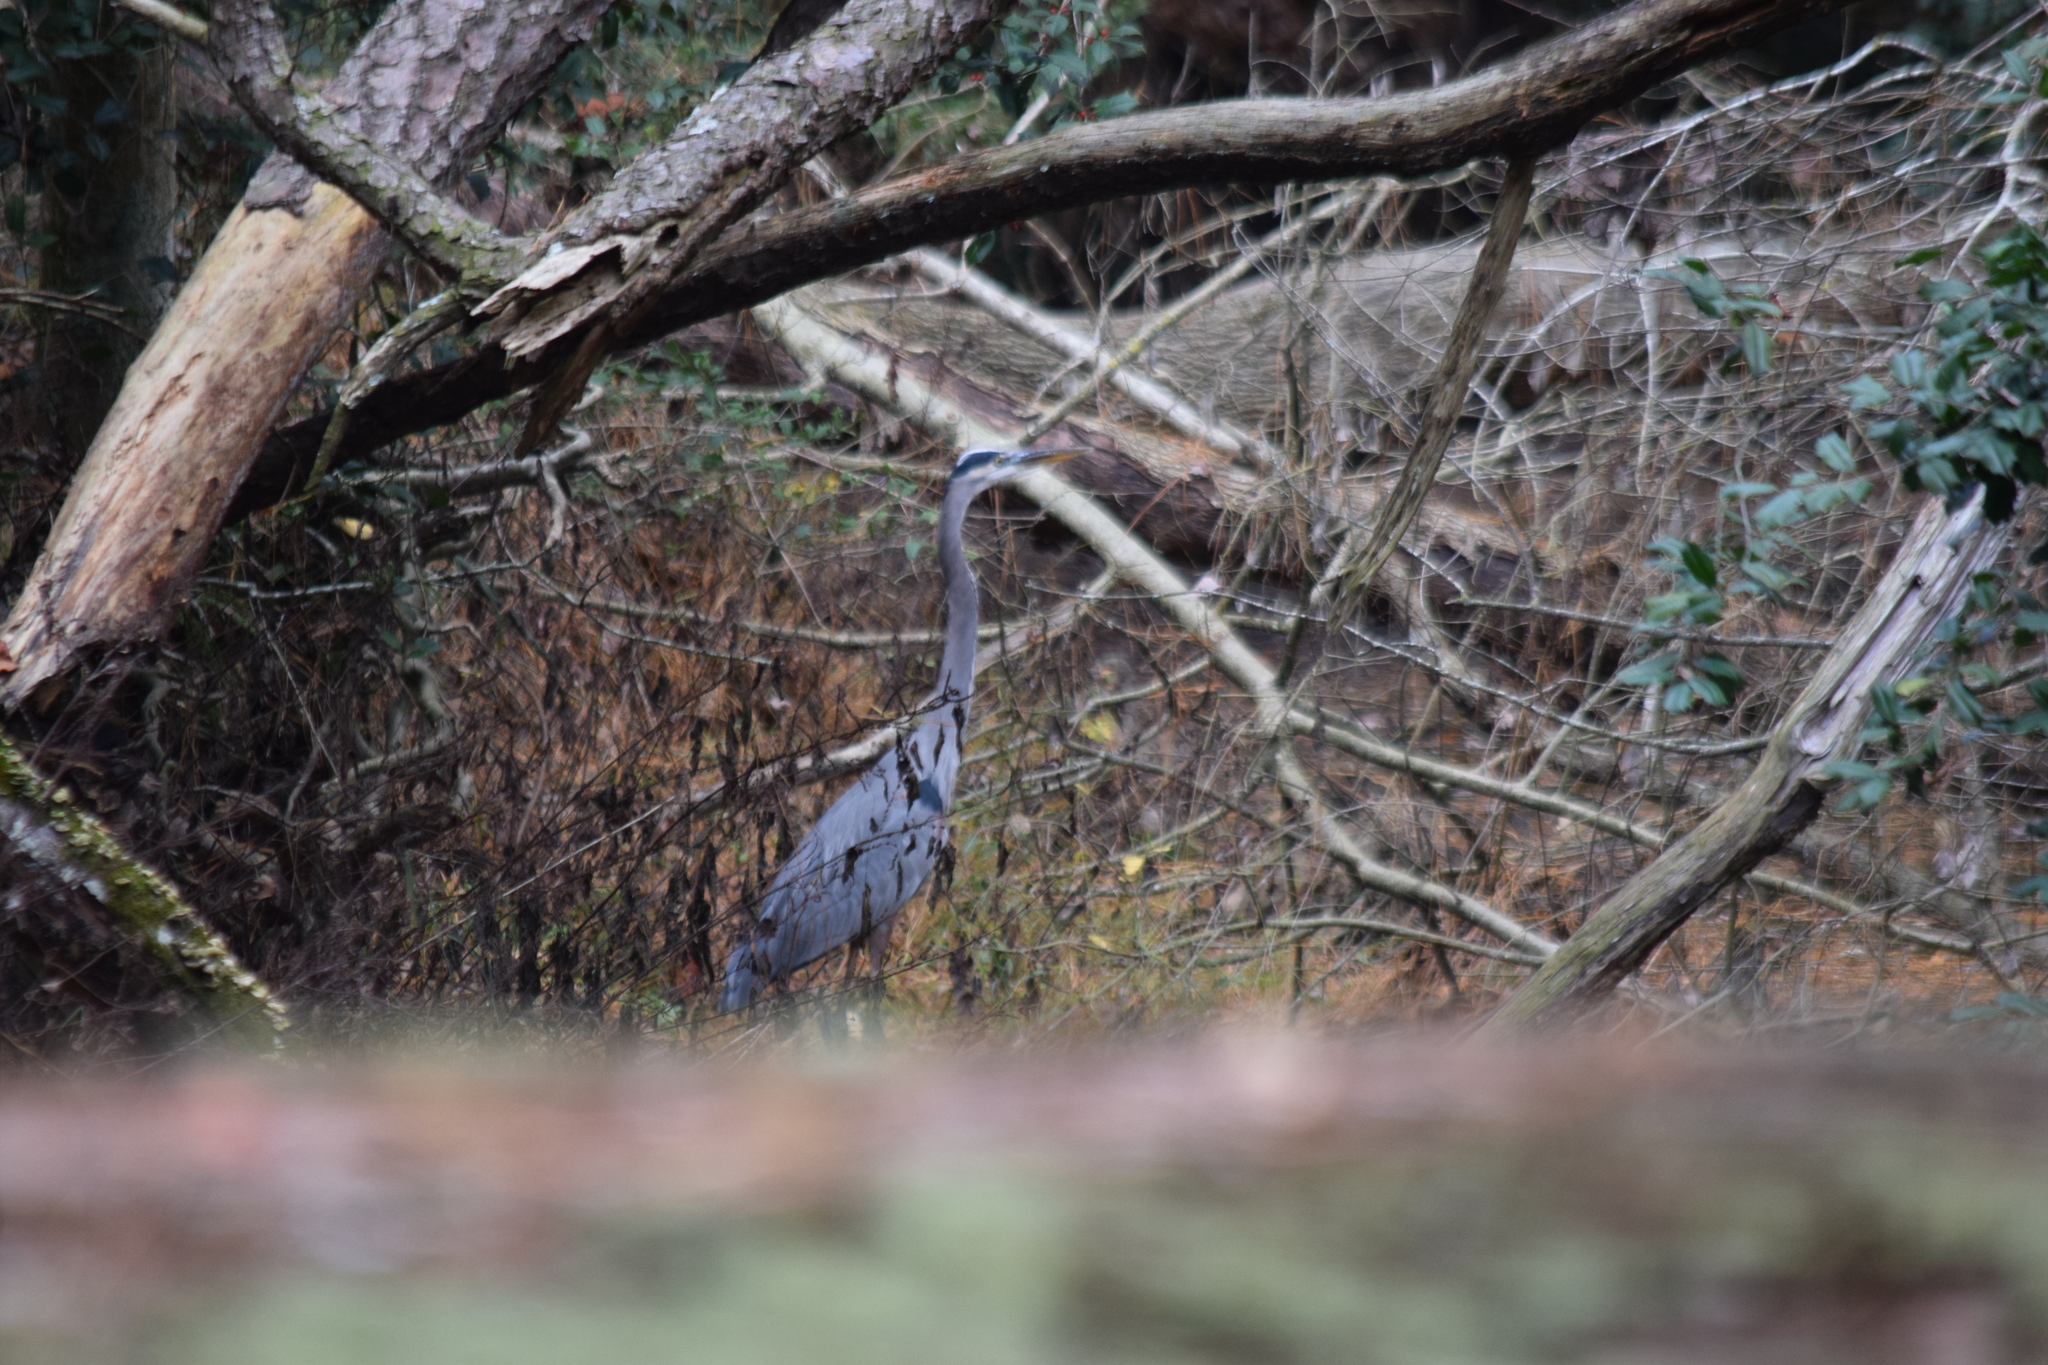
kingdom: Animalia
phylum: Chordata
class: Aves
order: Pelecaniformes
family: Ardeidae
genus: Ardea
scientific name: Ardea herodias
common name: Great blue heron
